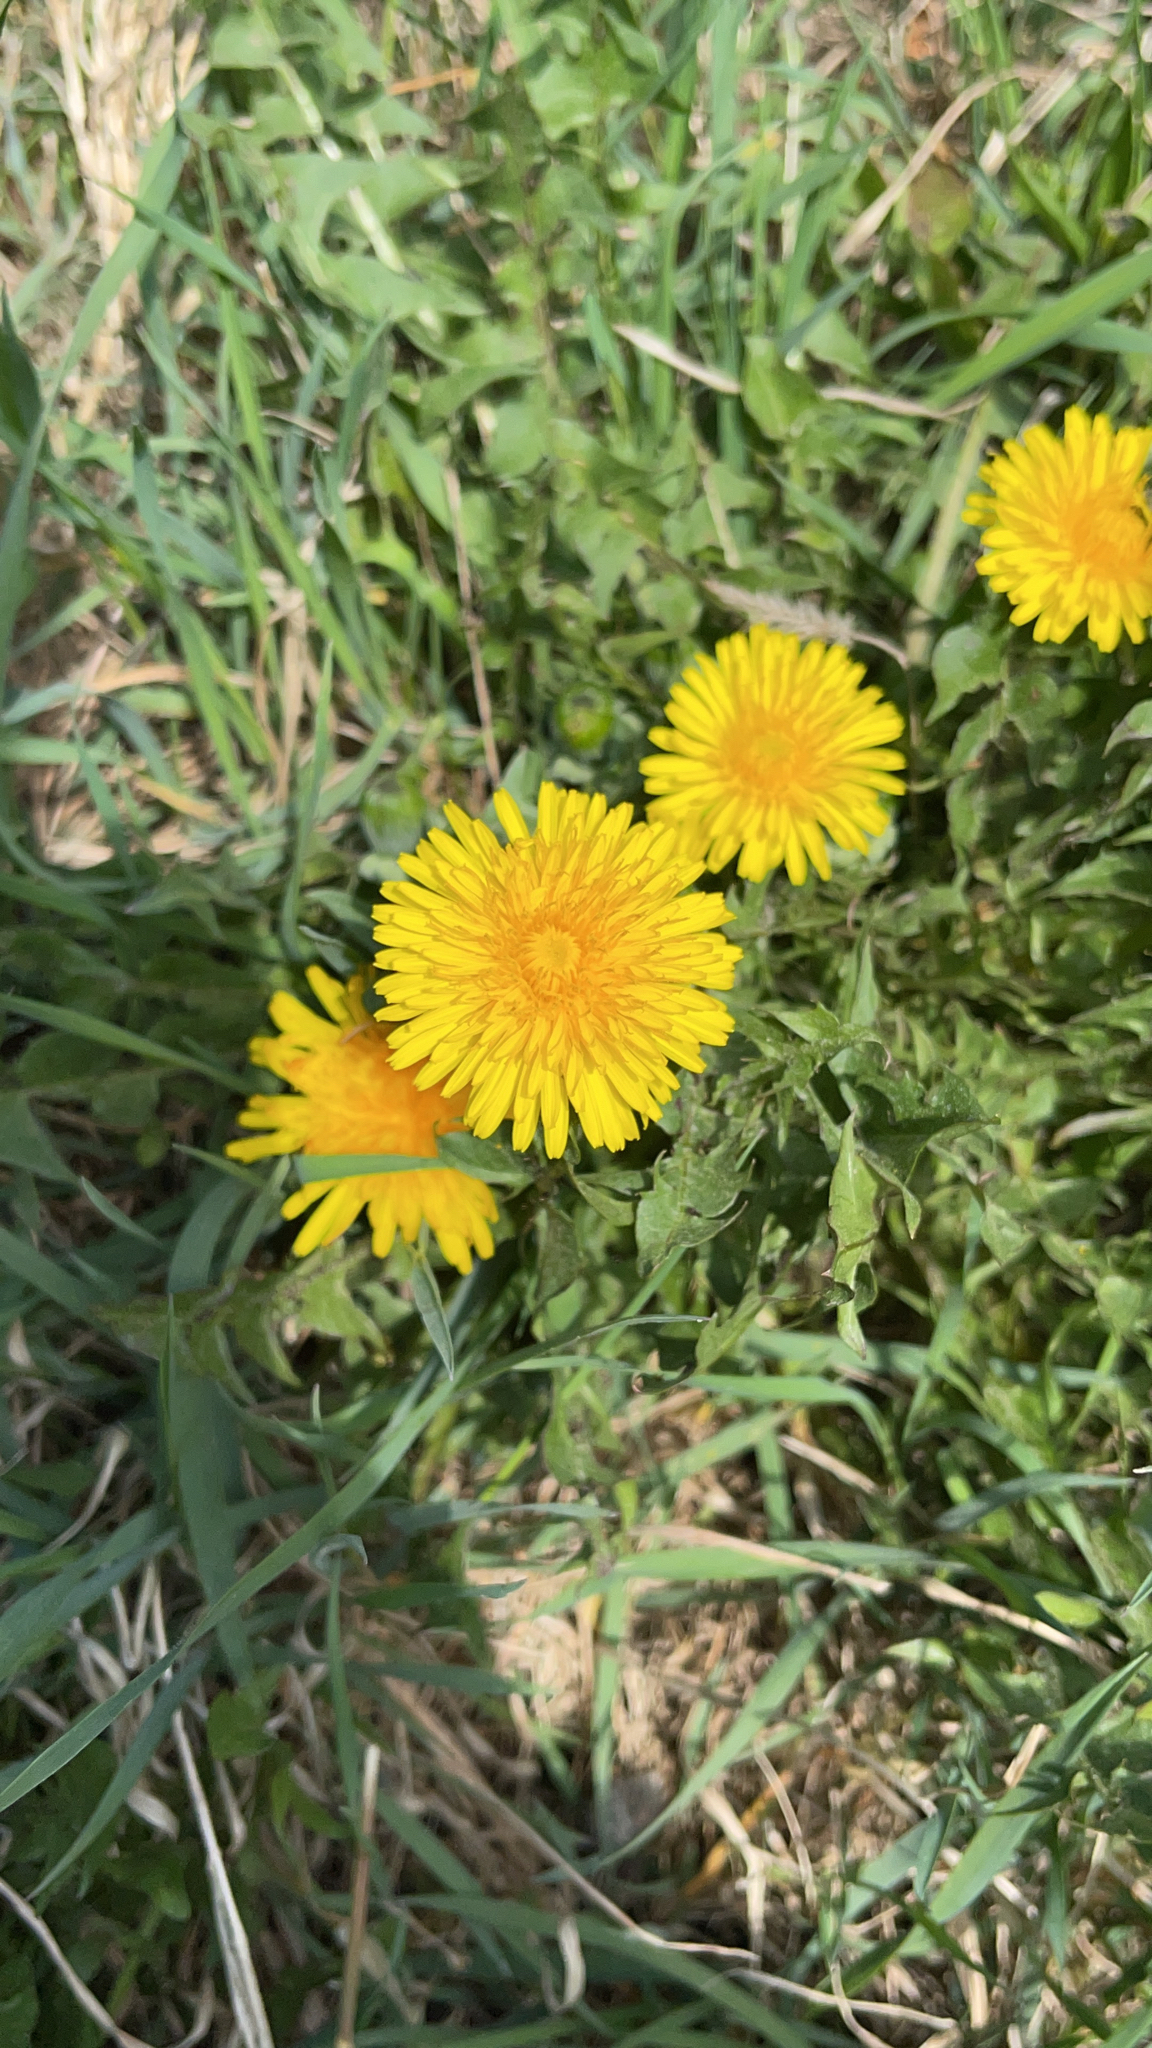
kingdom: Plantae
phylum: Tracheophyta
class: Magnoliopsida
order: Asterales
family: Asteraceae
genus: Taraxacum
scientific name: Taraxacum officinale
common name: Common dandelion
